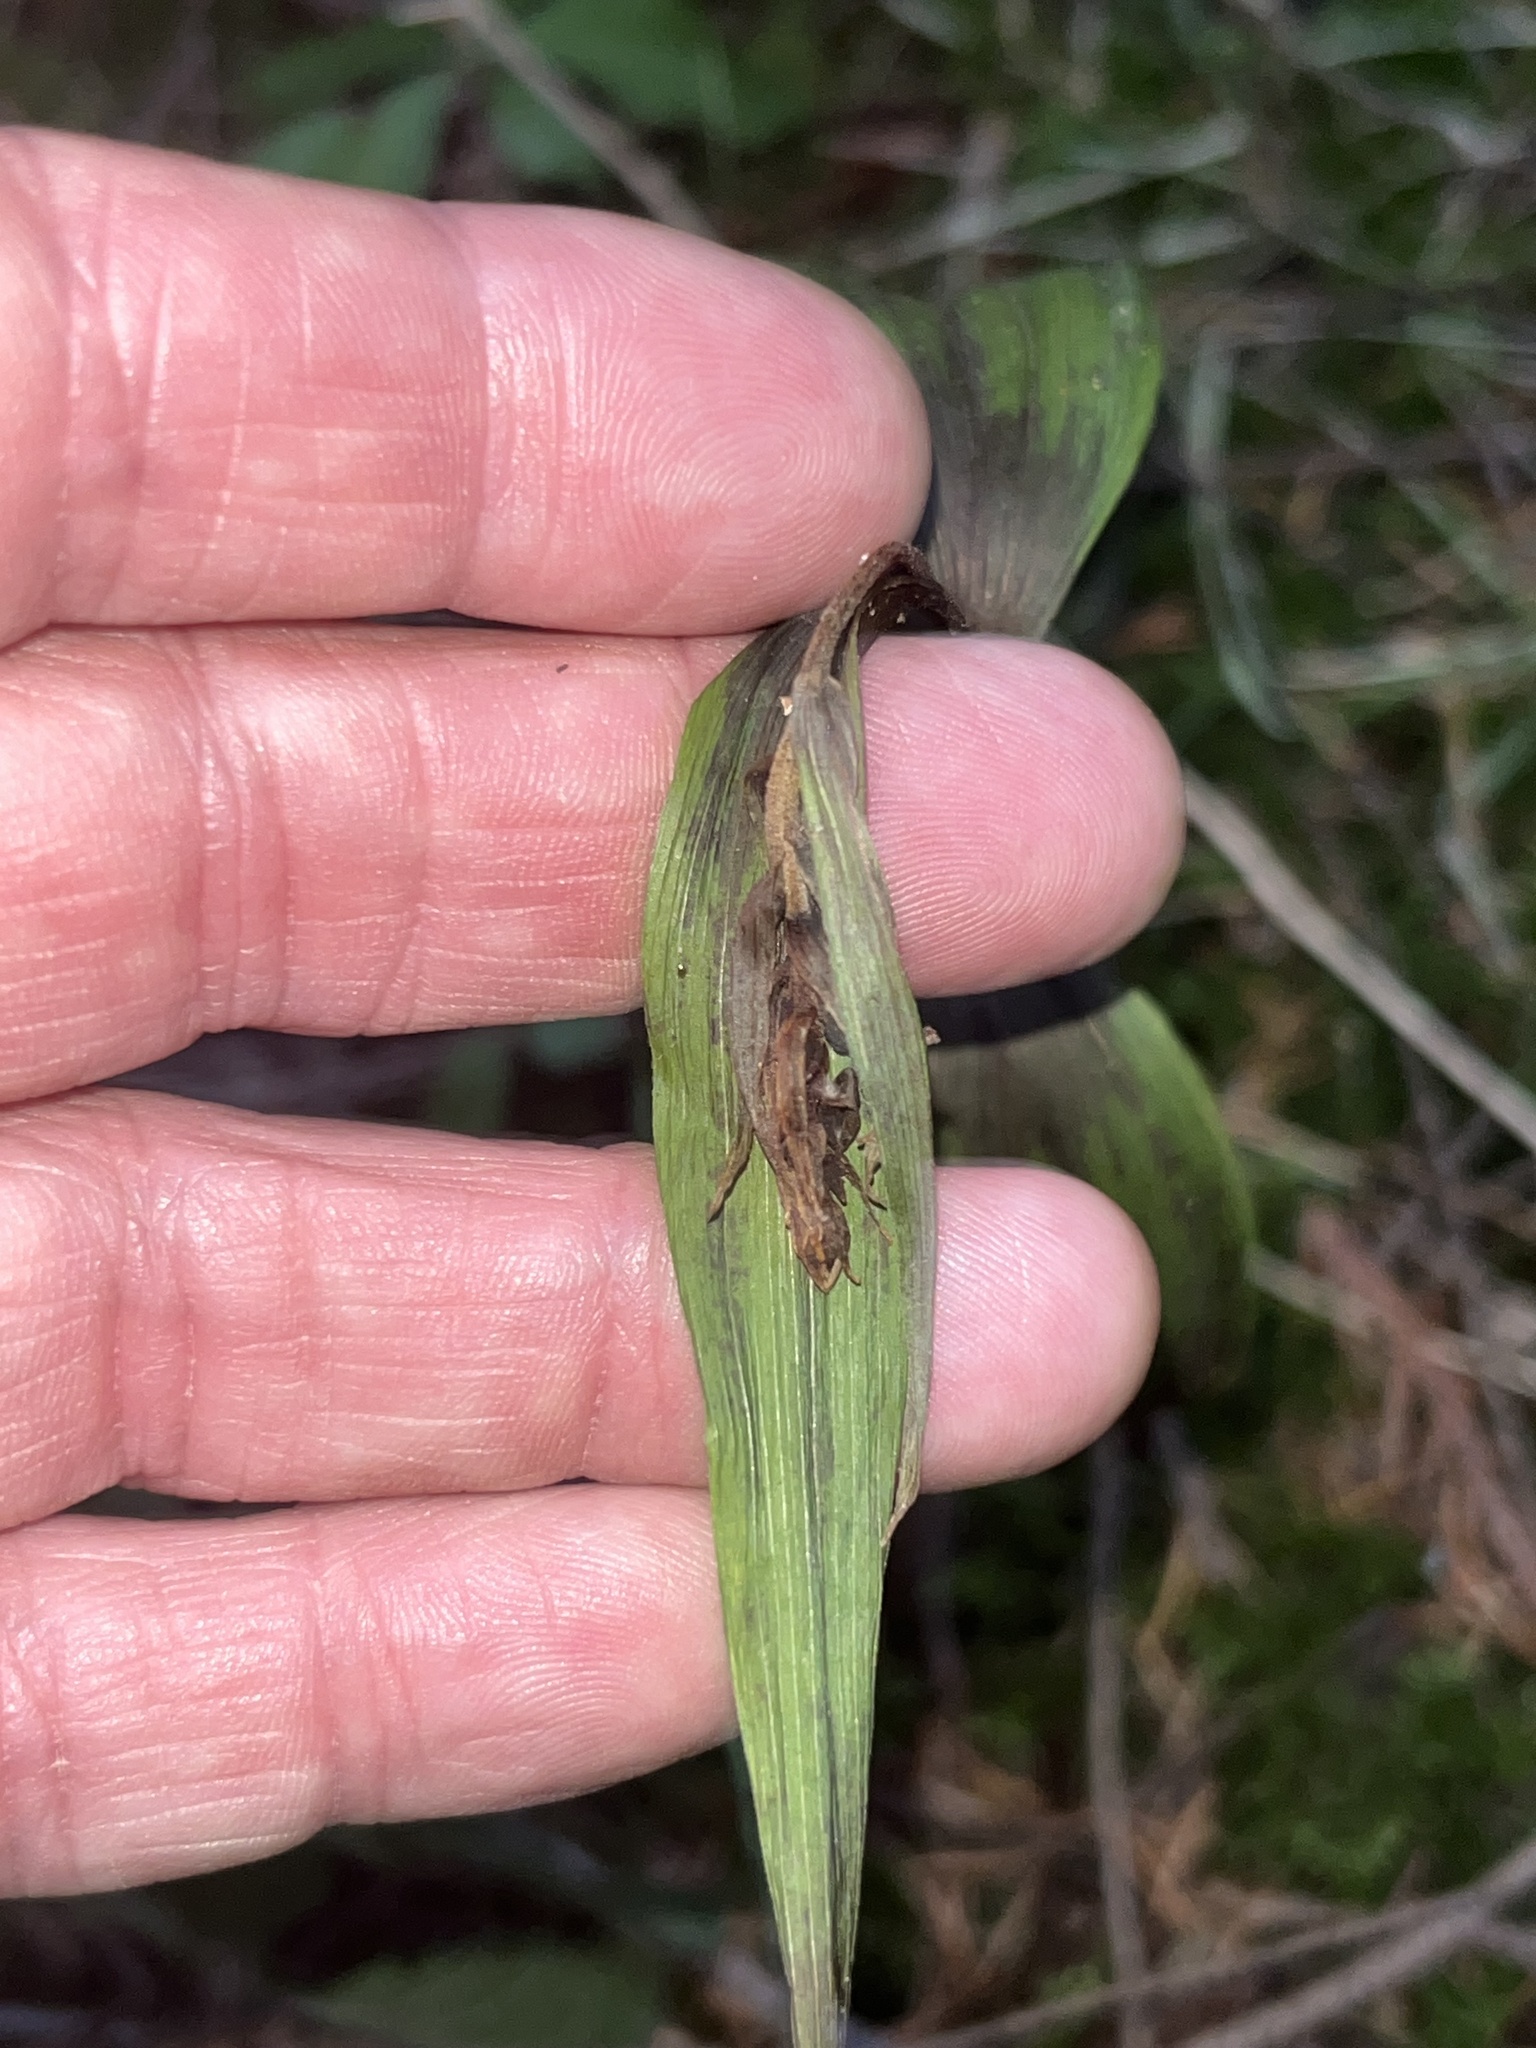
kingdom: Plantae
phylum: Tracheophyta
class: Liliopsida
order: Asparagales
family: Orchidaceae
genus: Epipactis
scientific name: Epipactis helleborine
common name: Broad-leaved helleborine
